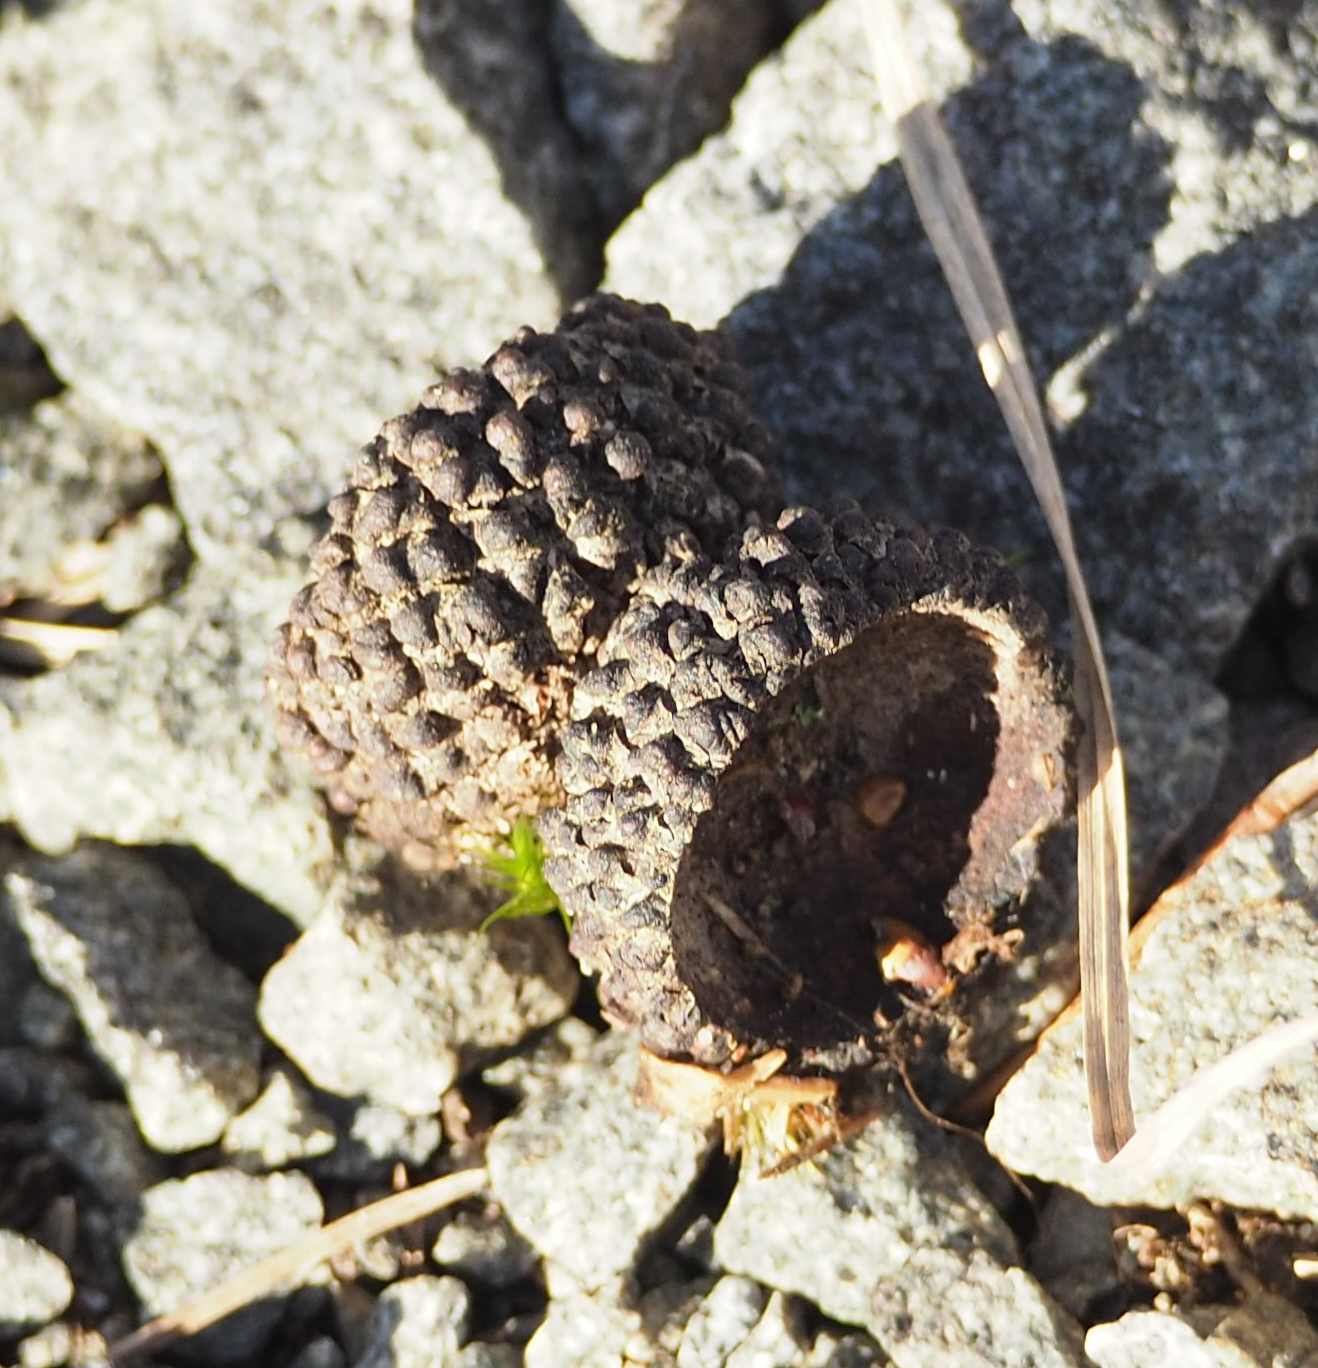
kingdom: Plantae
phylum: Tracheophyta
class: Magnoliopsida
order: Fagales
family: Fagaceae
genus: Quercus
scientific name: Quercus alba
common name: White oak
